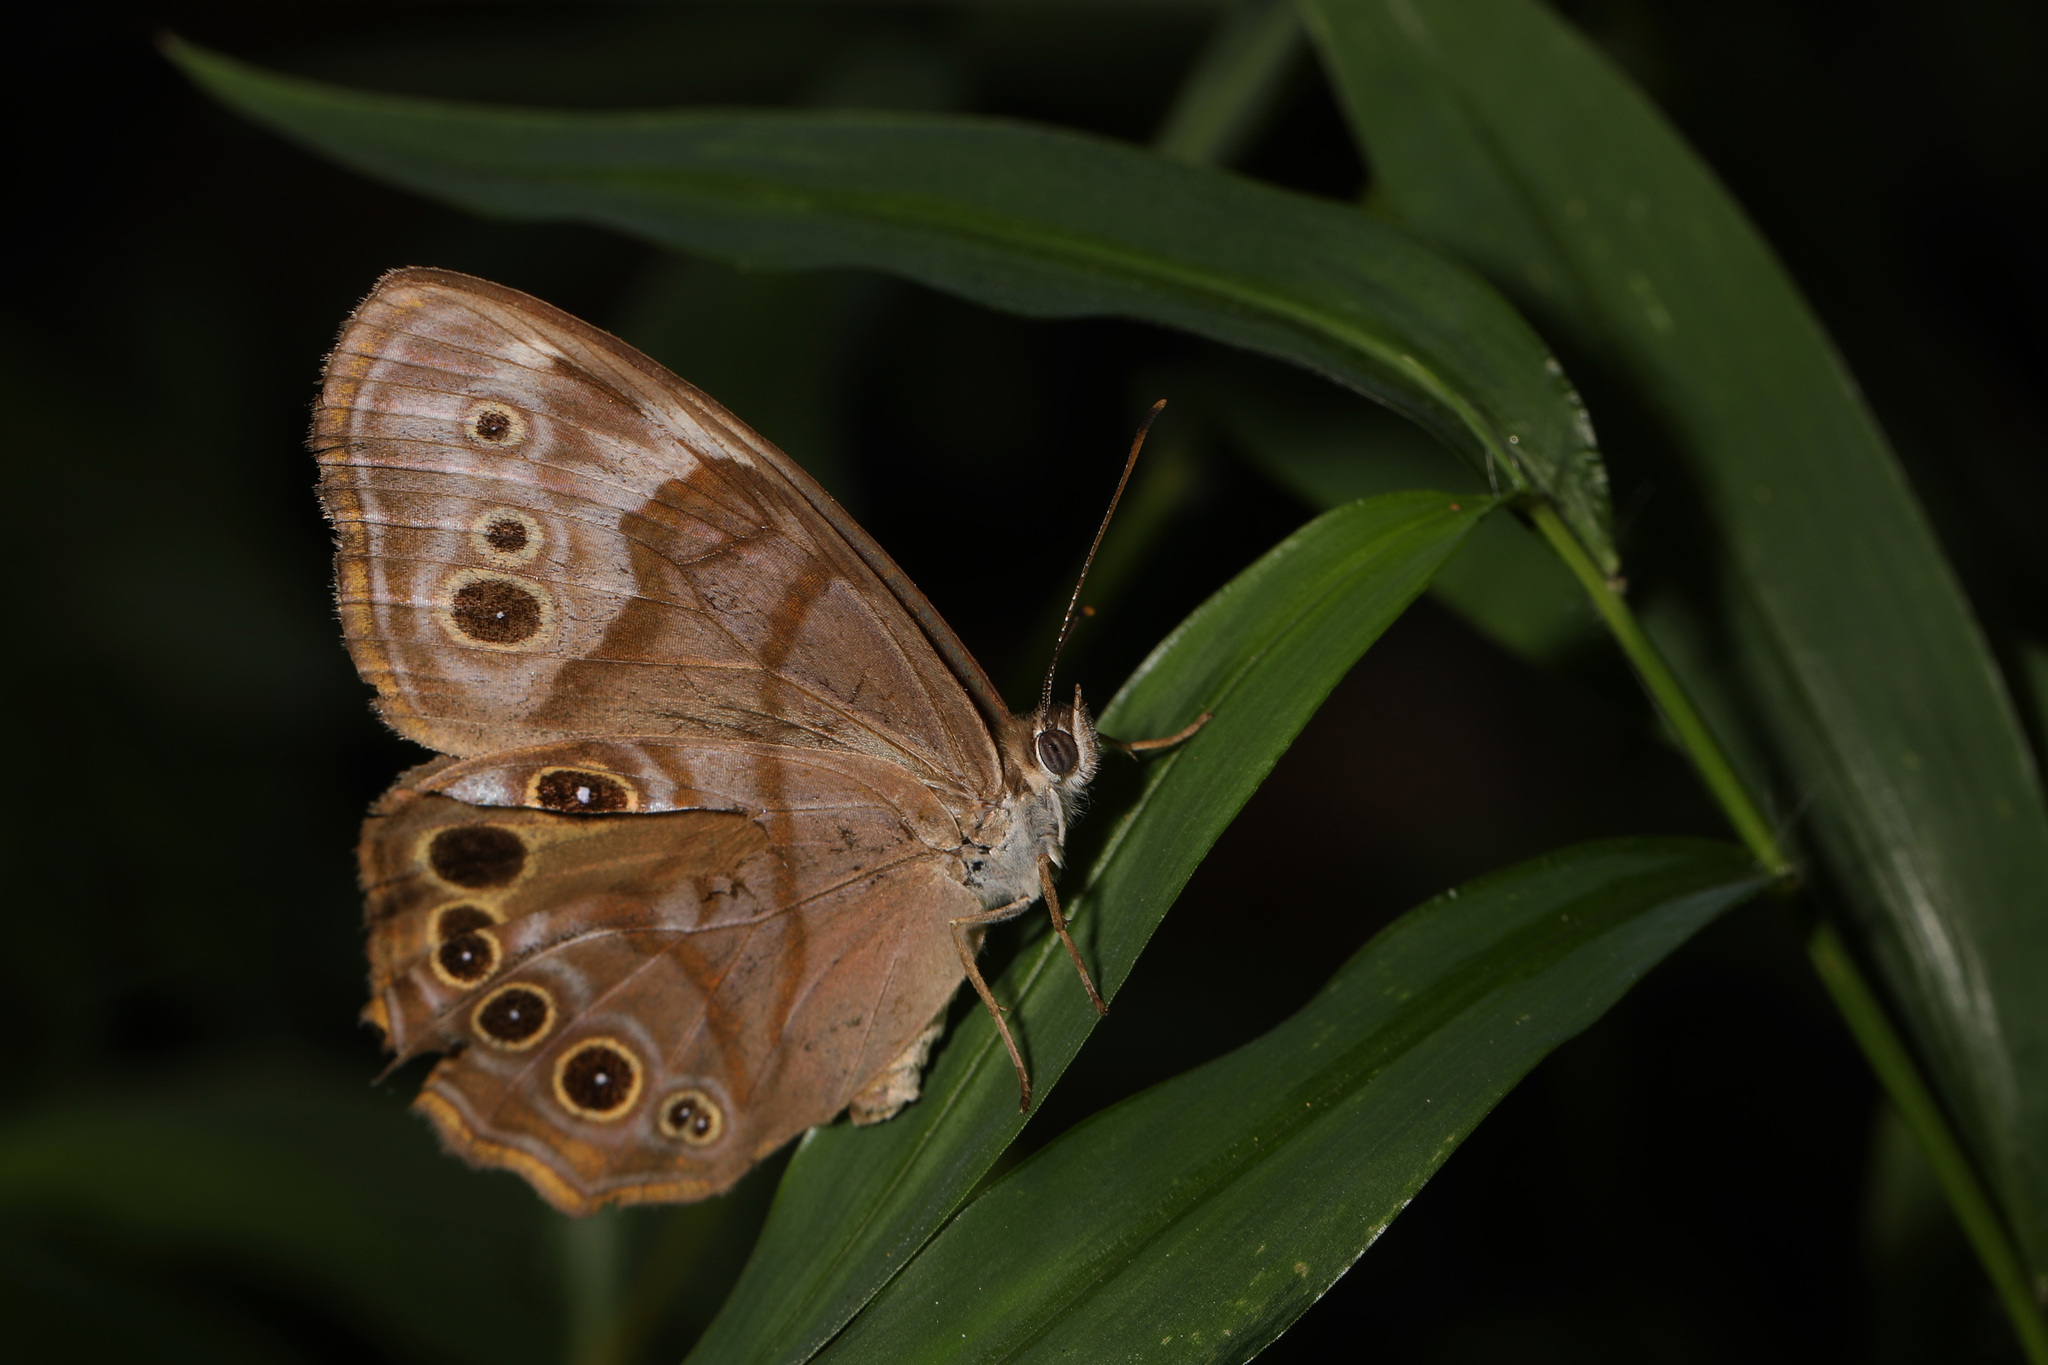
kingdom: Animalia
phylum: Arthropoda
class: Insecta
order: Lepidoptera
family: Nymphalidae
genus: Lethe
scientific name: Lethe anthedon
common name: Northern pearly-eye
